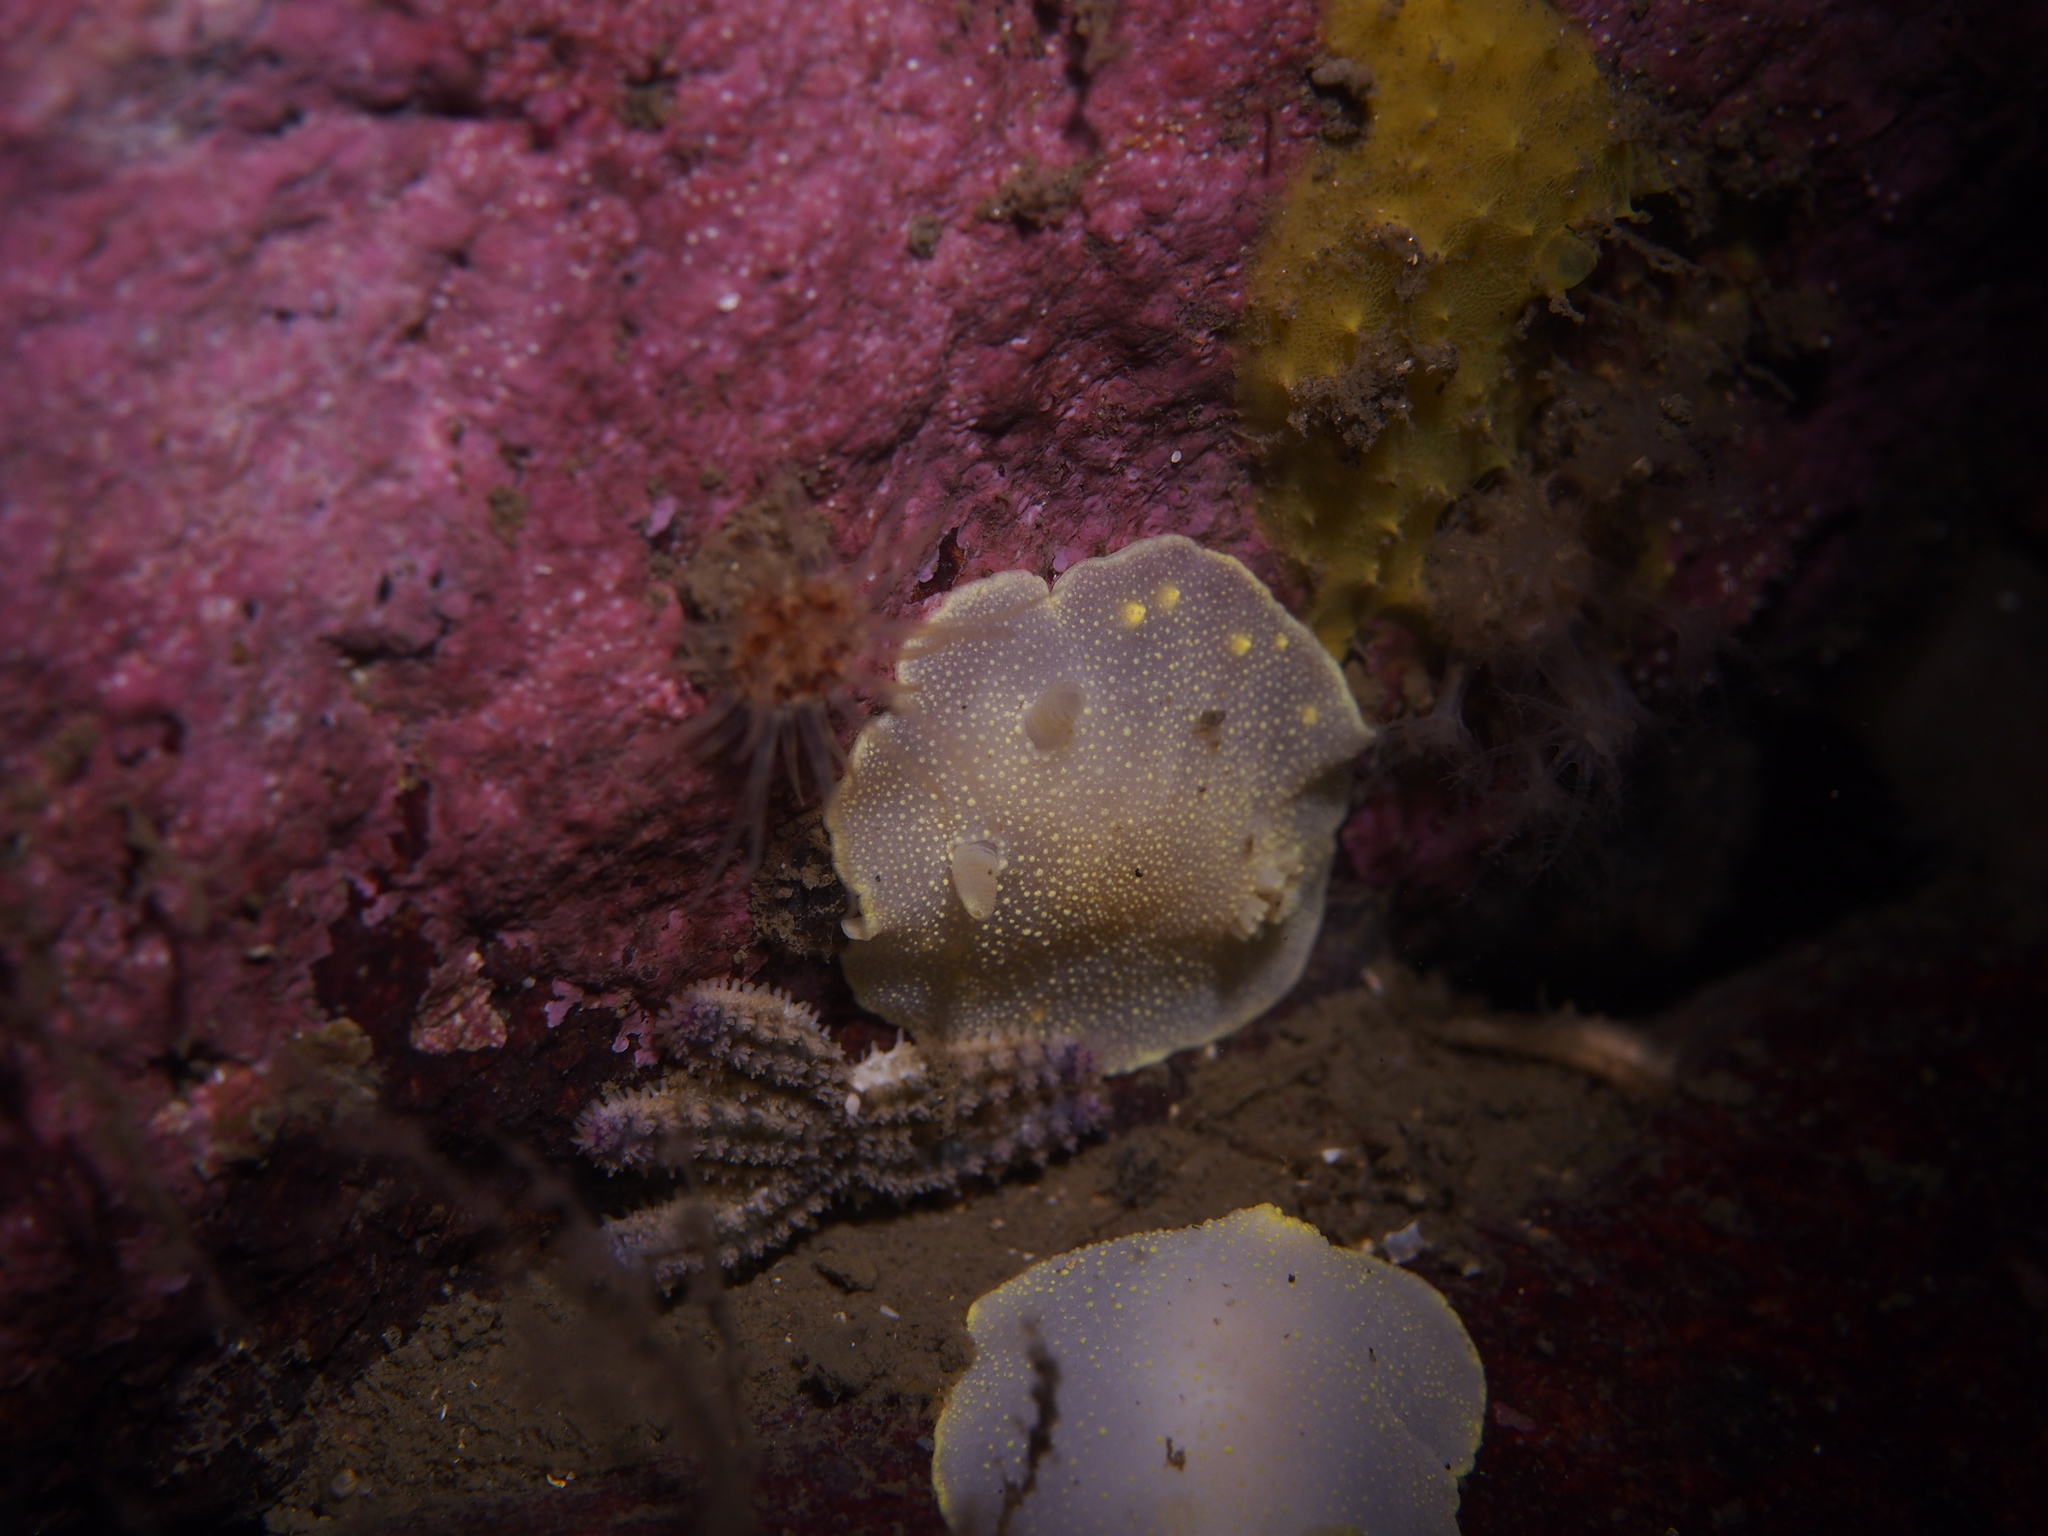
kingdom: Animalia
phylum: Mollusca
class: Gastropoda
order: Nudibranchia
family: Cadlinidae
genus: Cadlina
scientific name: Cadlina laevis
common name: White atlantic cadlina
